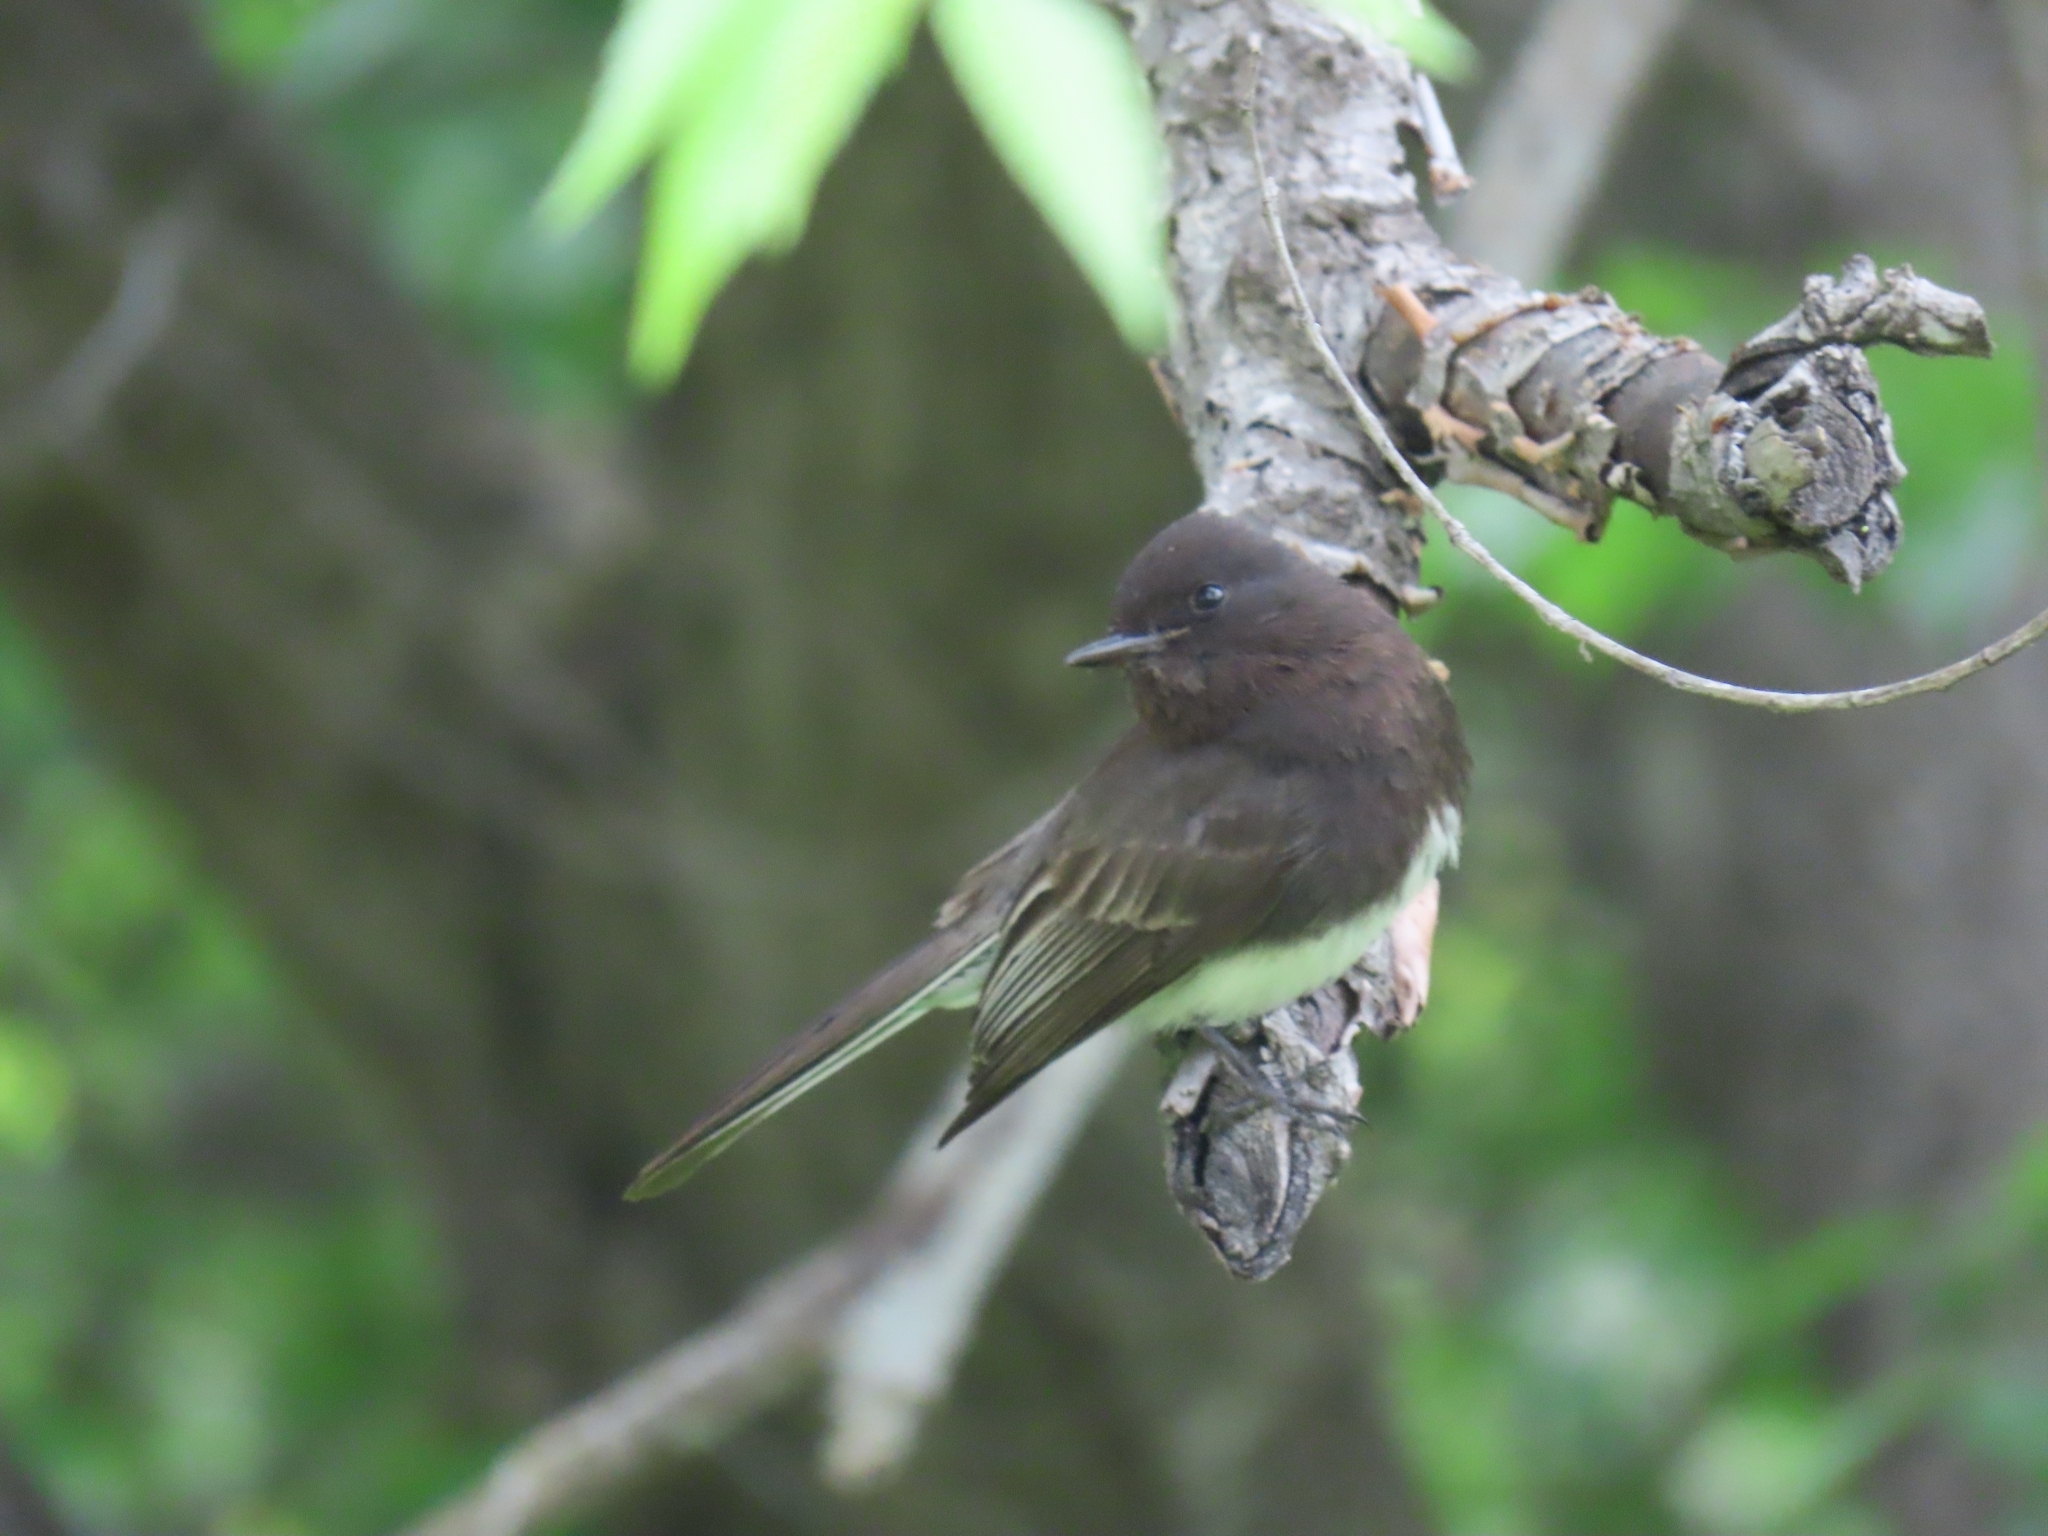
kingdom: Animalia
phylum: Chordata
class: Aves
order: Passeriformes
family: Tyrannidae
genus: Sayornis
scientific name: Sayornis nigricans
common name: Black phoebe
